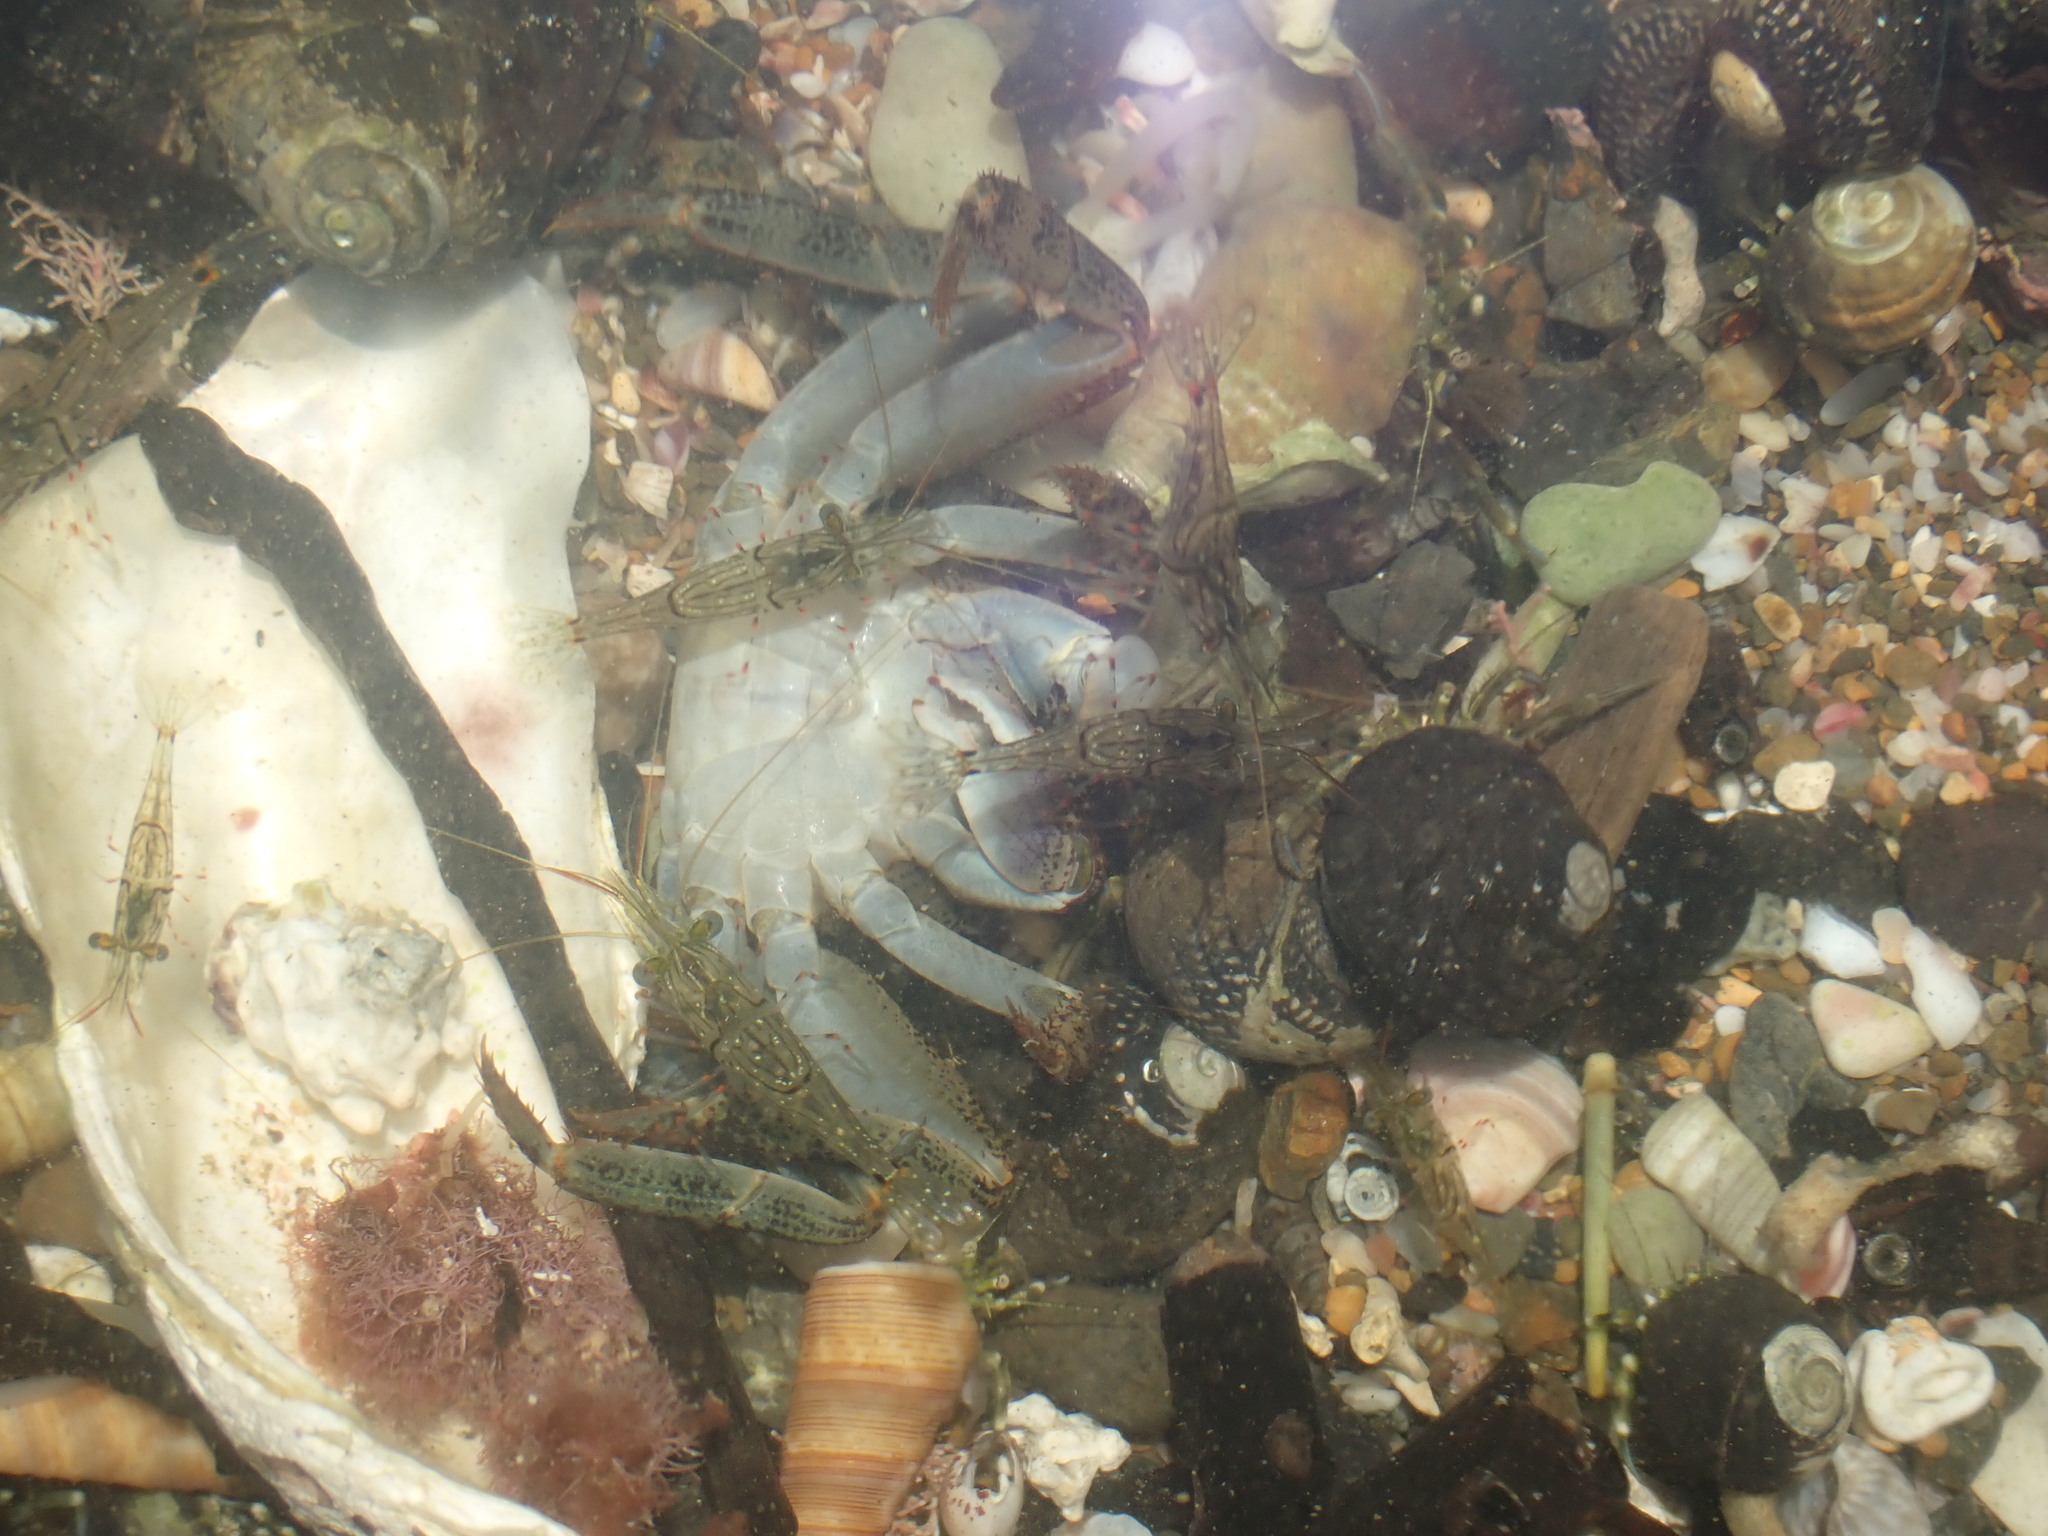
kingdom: Animalia
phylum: Arthropoda
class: Malacostraca
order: Decapoda
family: Palaemonidae
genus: Palaemon
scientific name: Palaemon affinis
